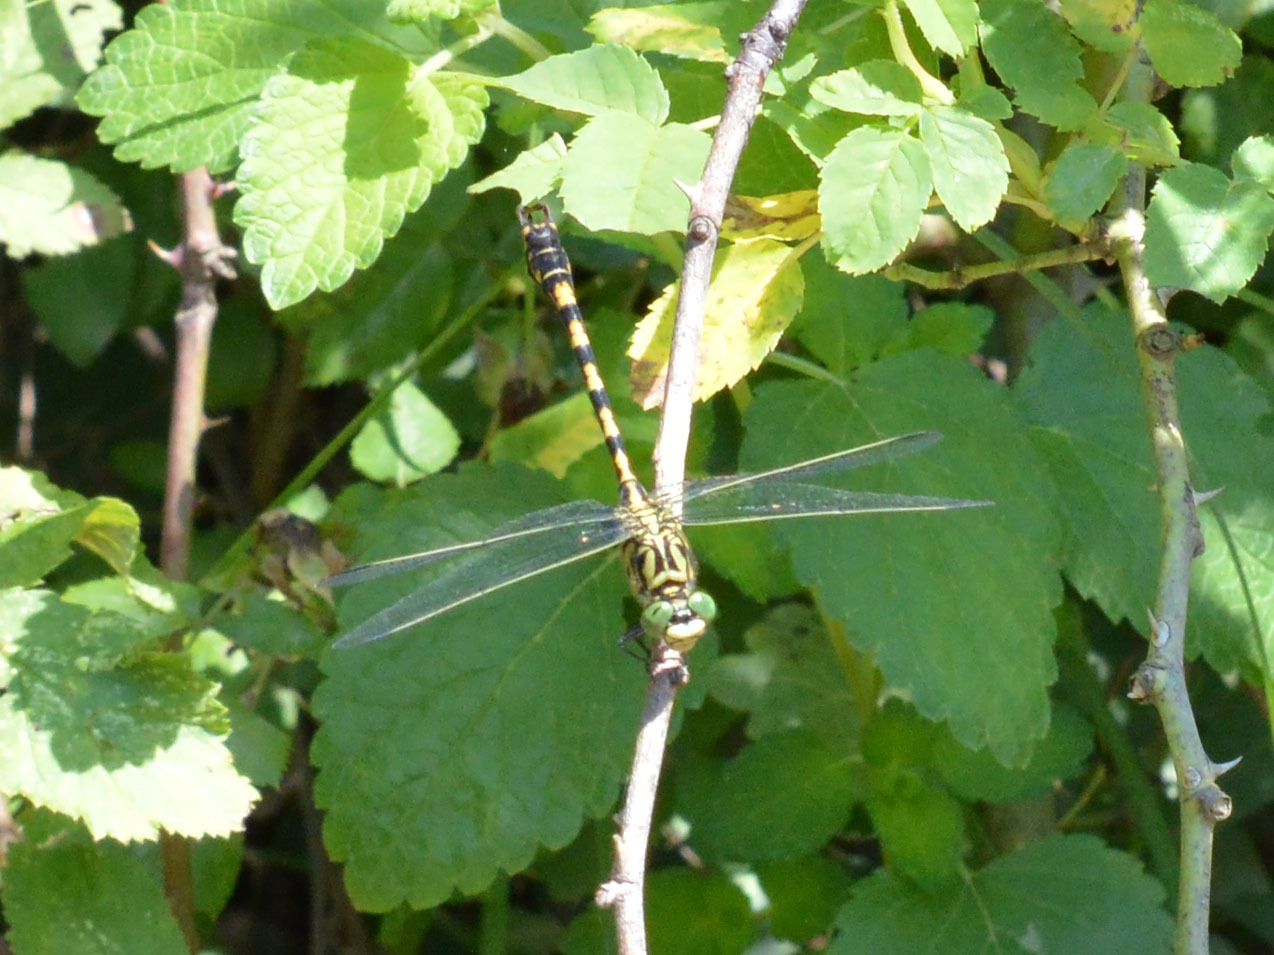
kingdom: Animalia
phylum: Arthropoda
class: Insecta
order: Odonata
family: Gomphidae
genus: Onychogomphus
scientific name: Onychogomphus forcipatus
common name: Small pincertail
